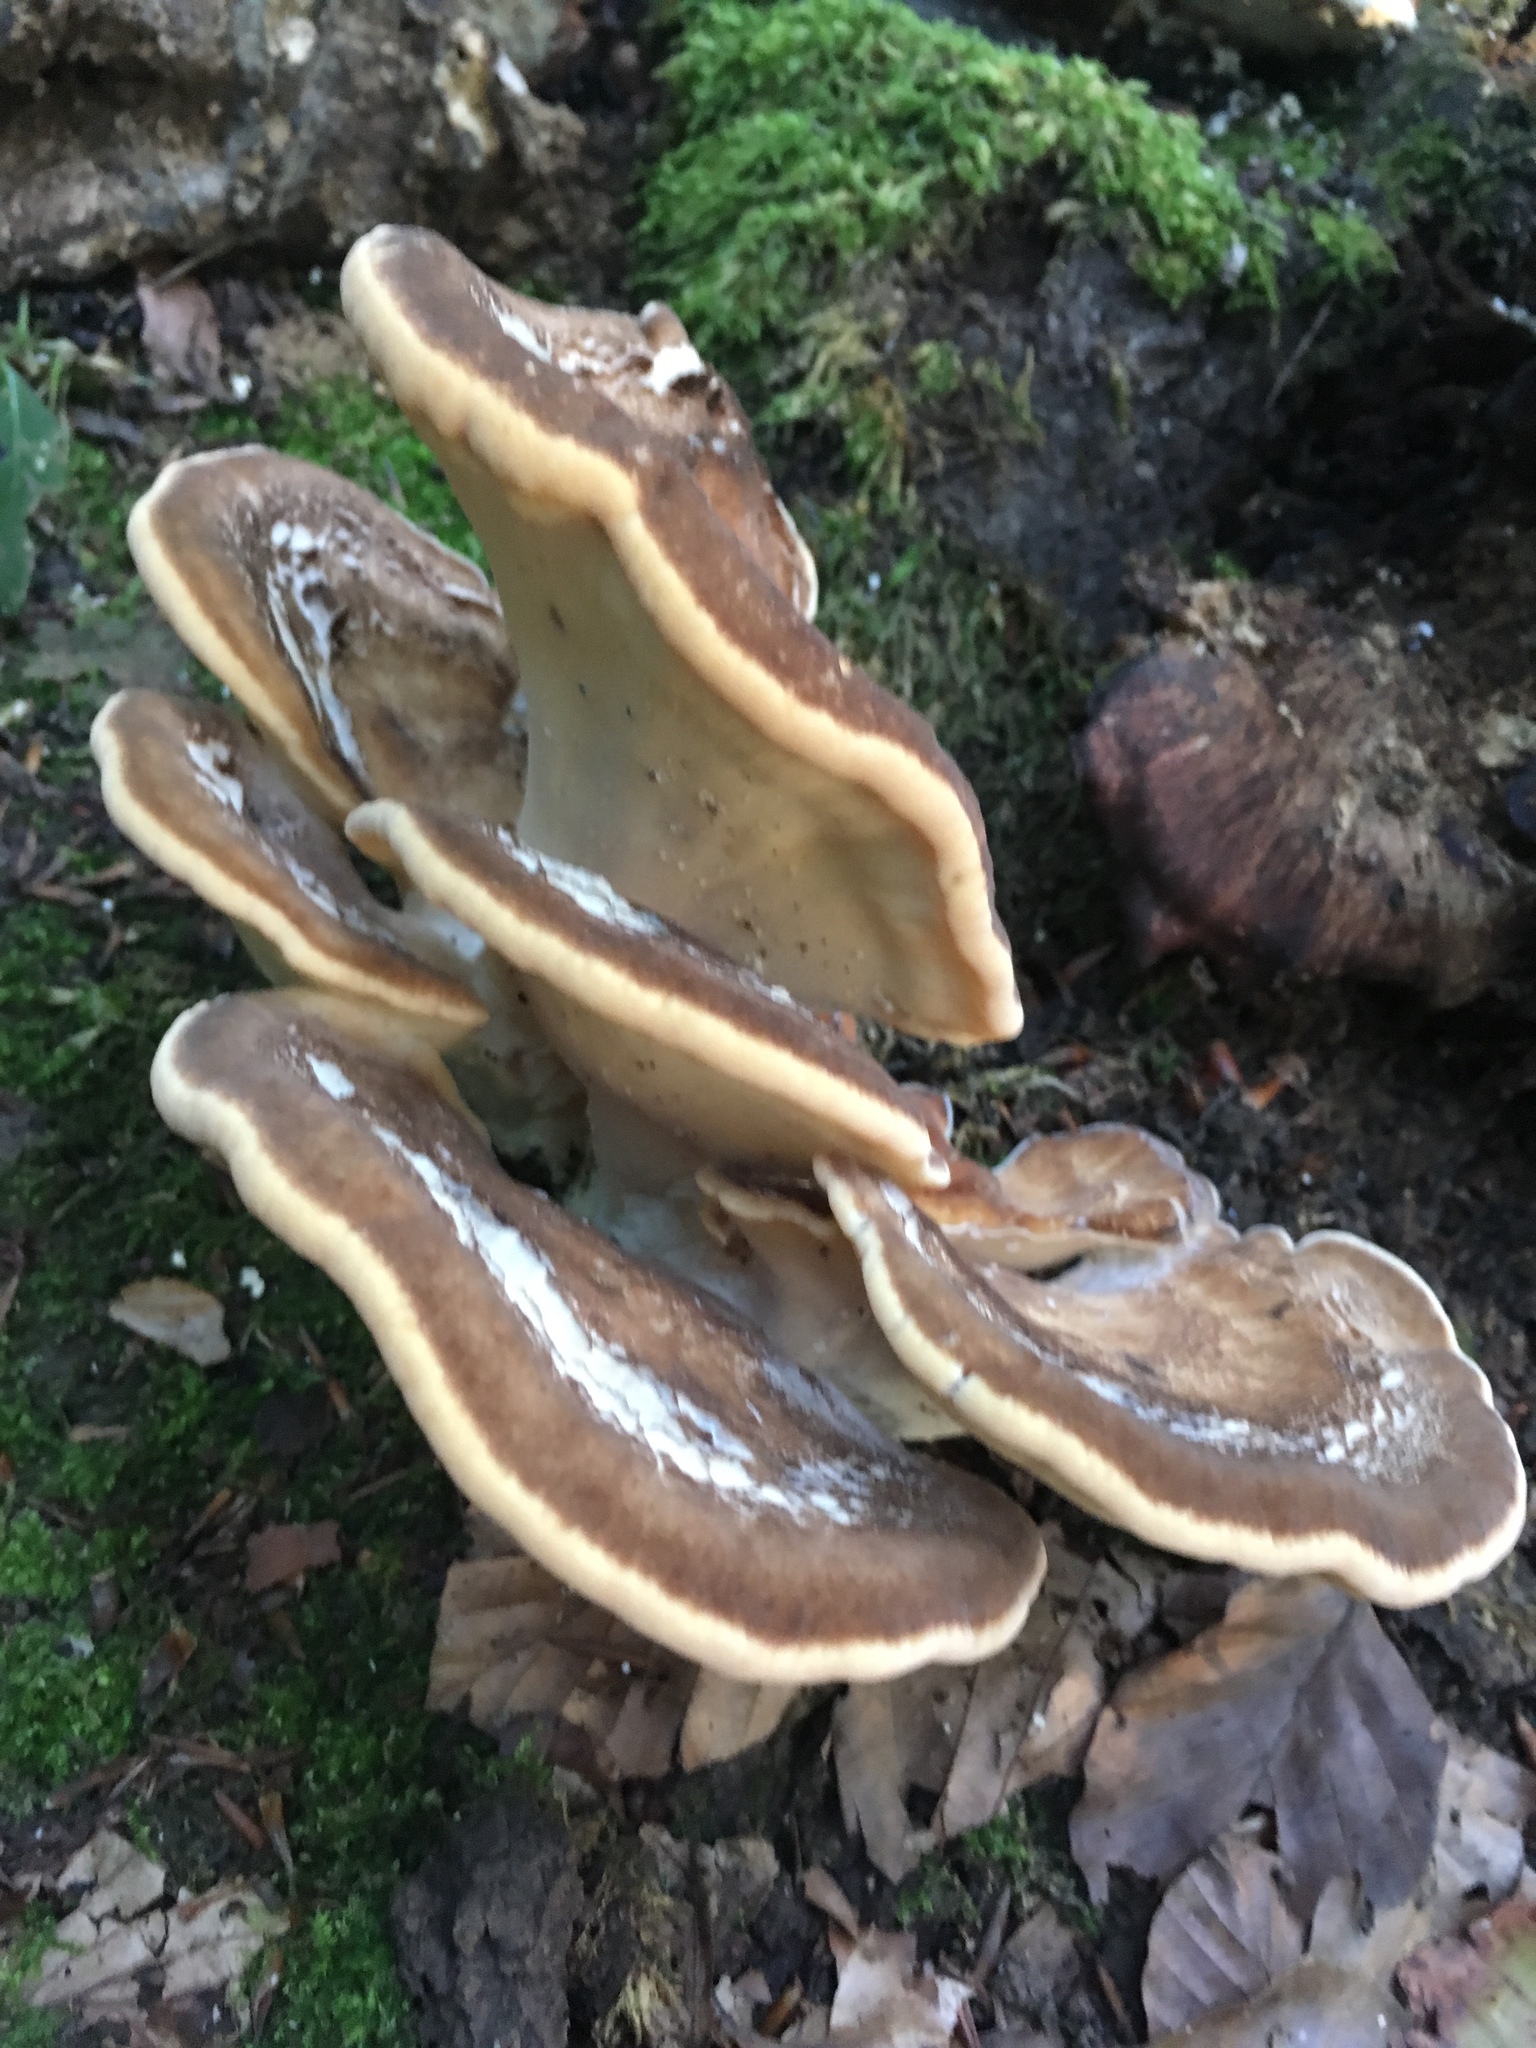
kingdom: Fungi
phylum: Basidiomycota
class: Agaricomycetes
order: Polyporales
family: Meripilaceae
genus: Meripilus
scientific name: Meripilus giganteus
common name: Giant polypore
